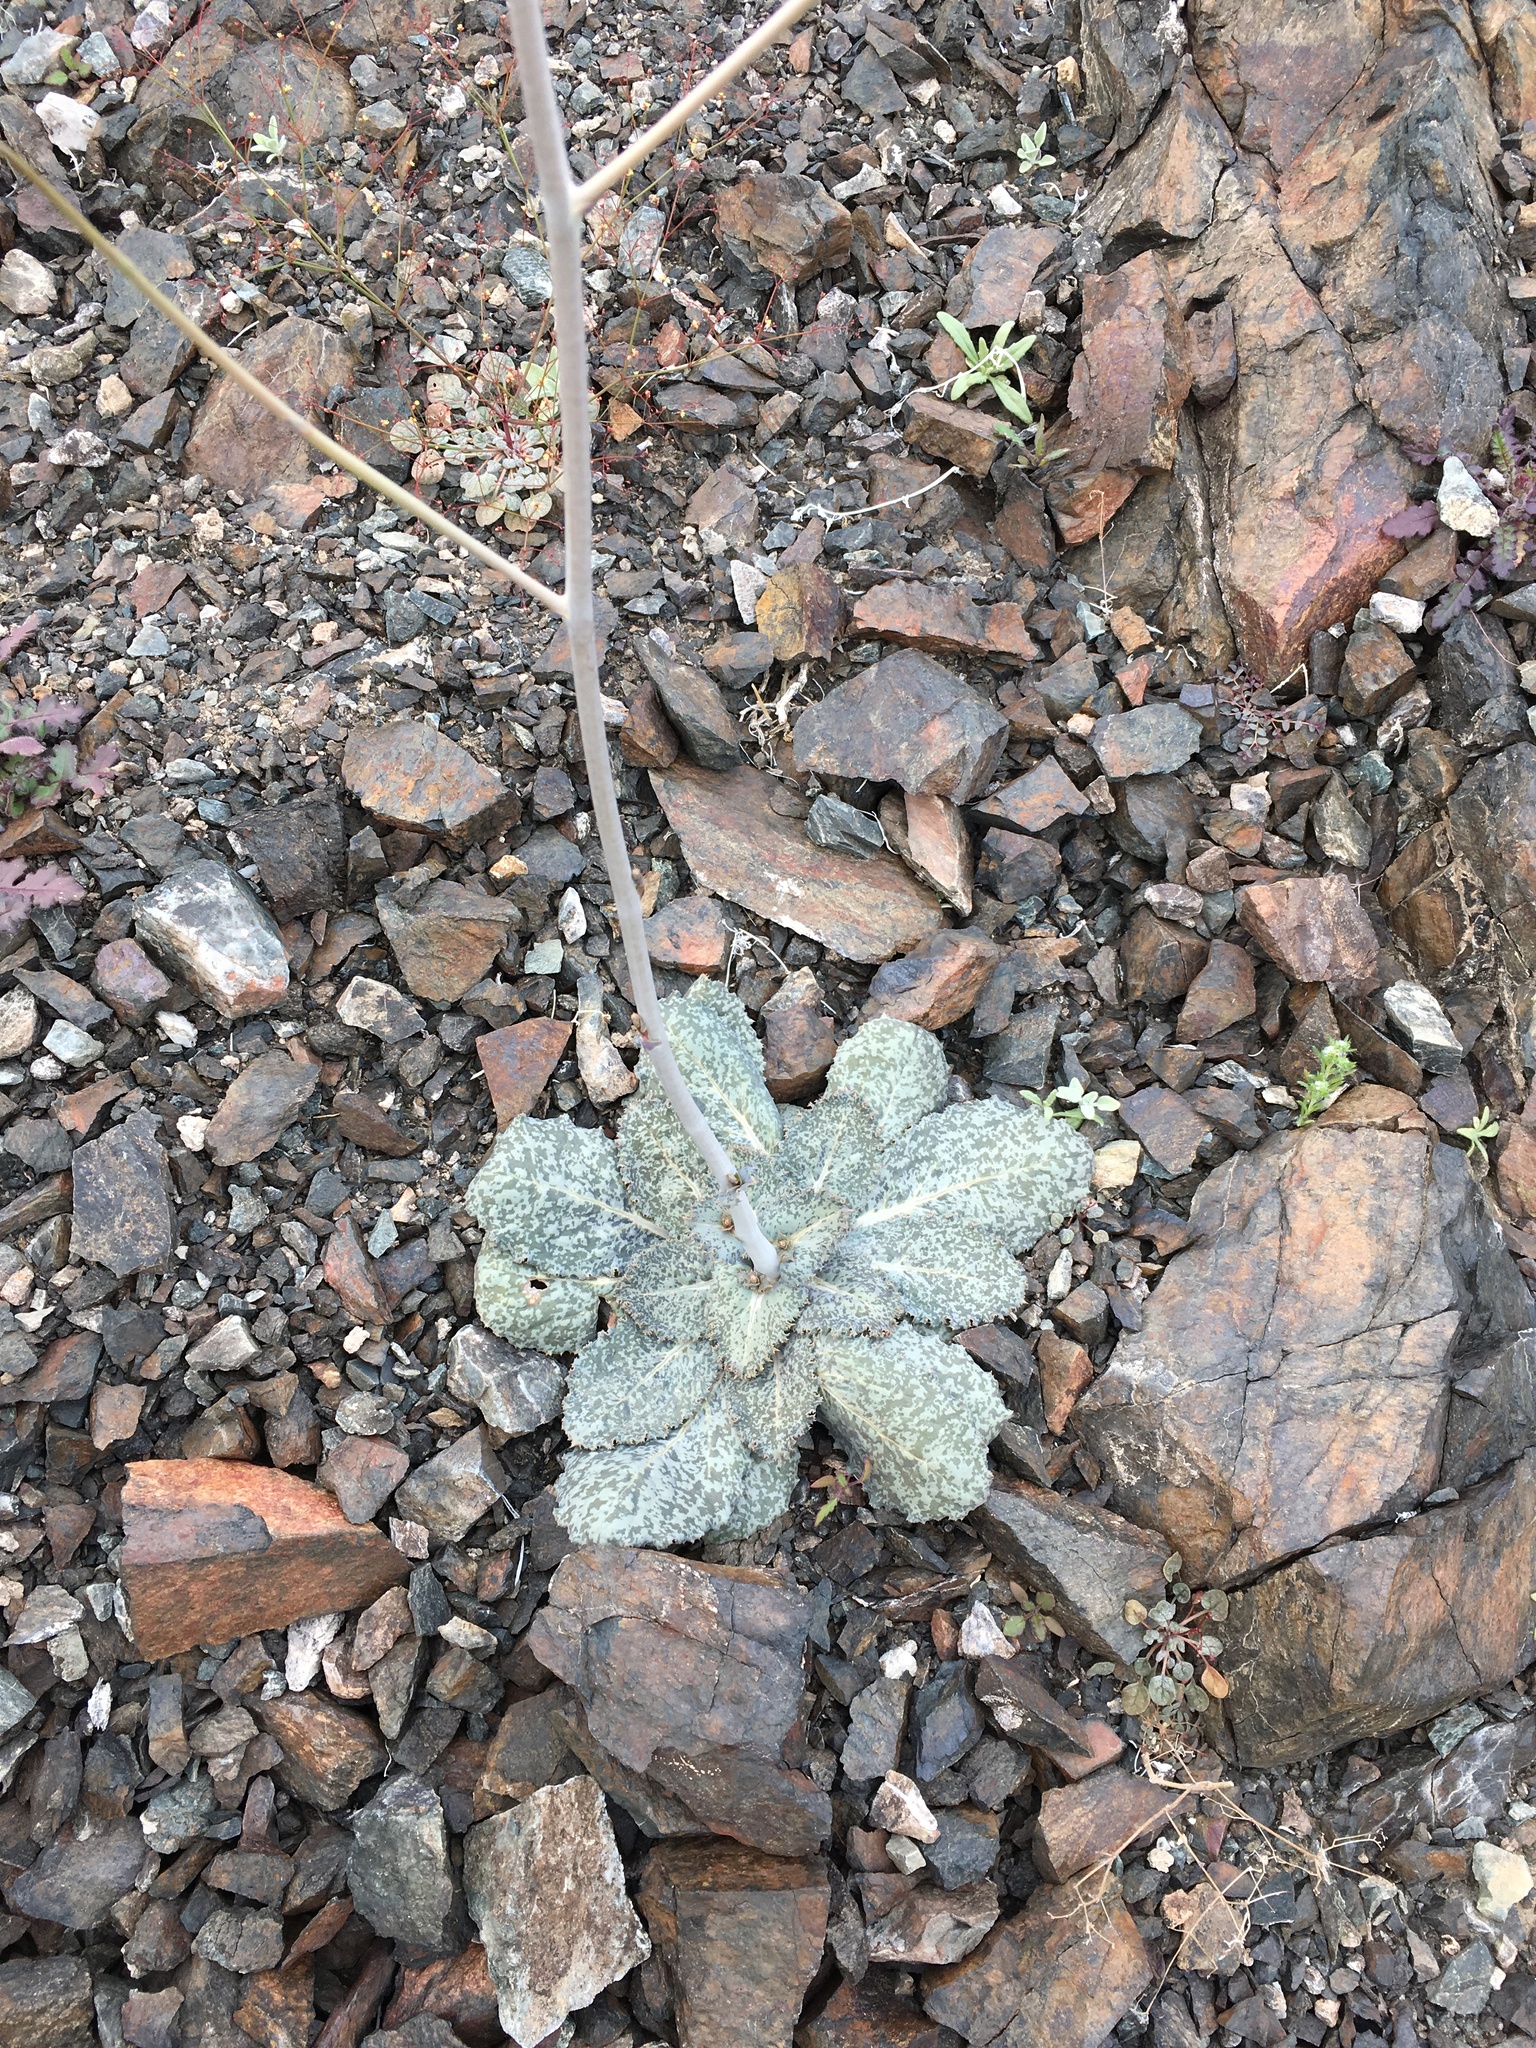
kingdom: Plantae
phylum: Tracheophyta
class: Magnoliopsida
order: Asterales
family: Asteraceae
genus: Atrichoseris
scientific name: Atrichoseris platyphylla
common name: Tobaccoweed
